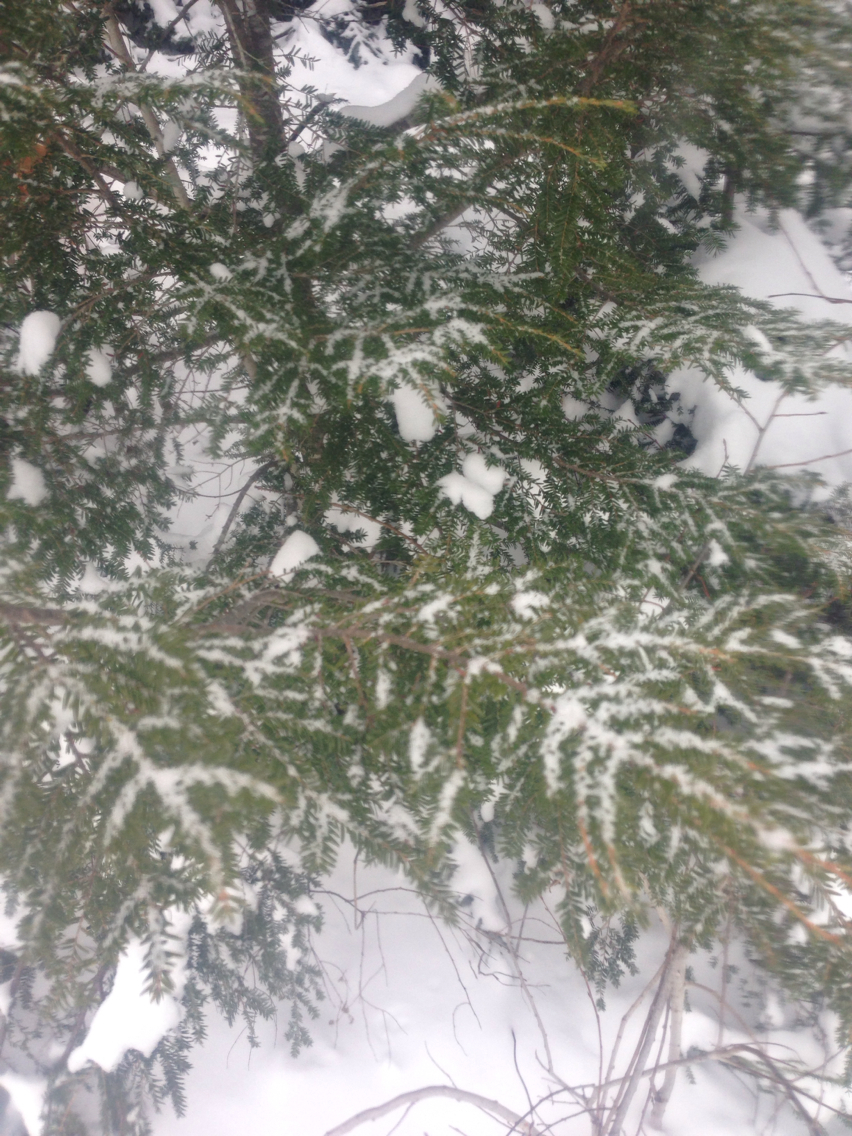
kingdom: Plantae
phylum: Tracheophyta
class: Pinopsida
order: Pinales
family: Pinaceae
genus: Tsuga
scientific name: Tsuga canadensis
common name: Eastern hemlock
